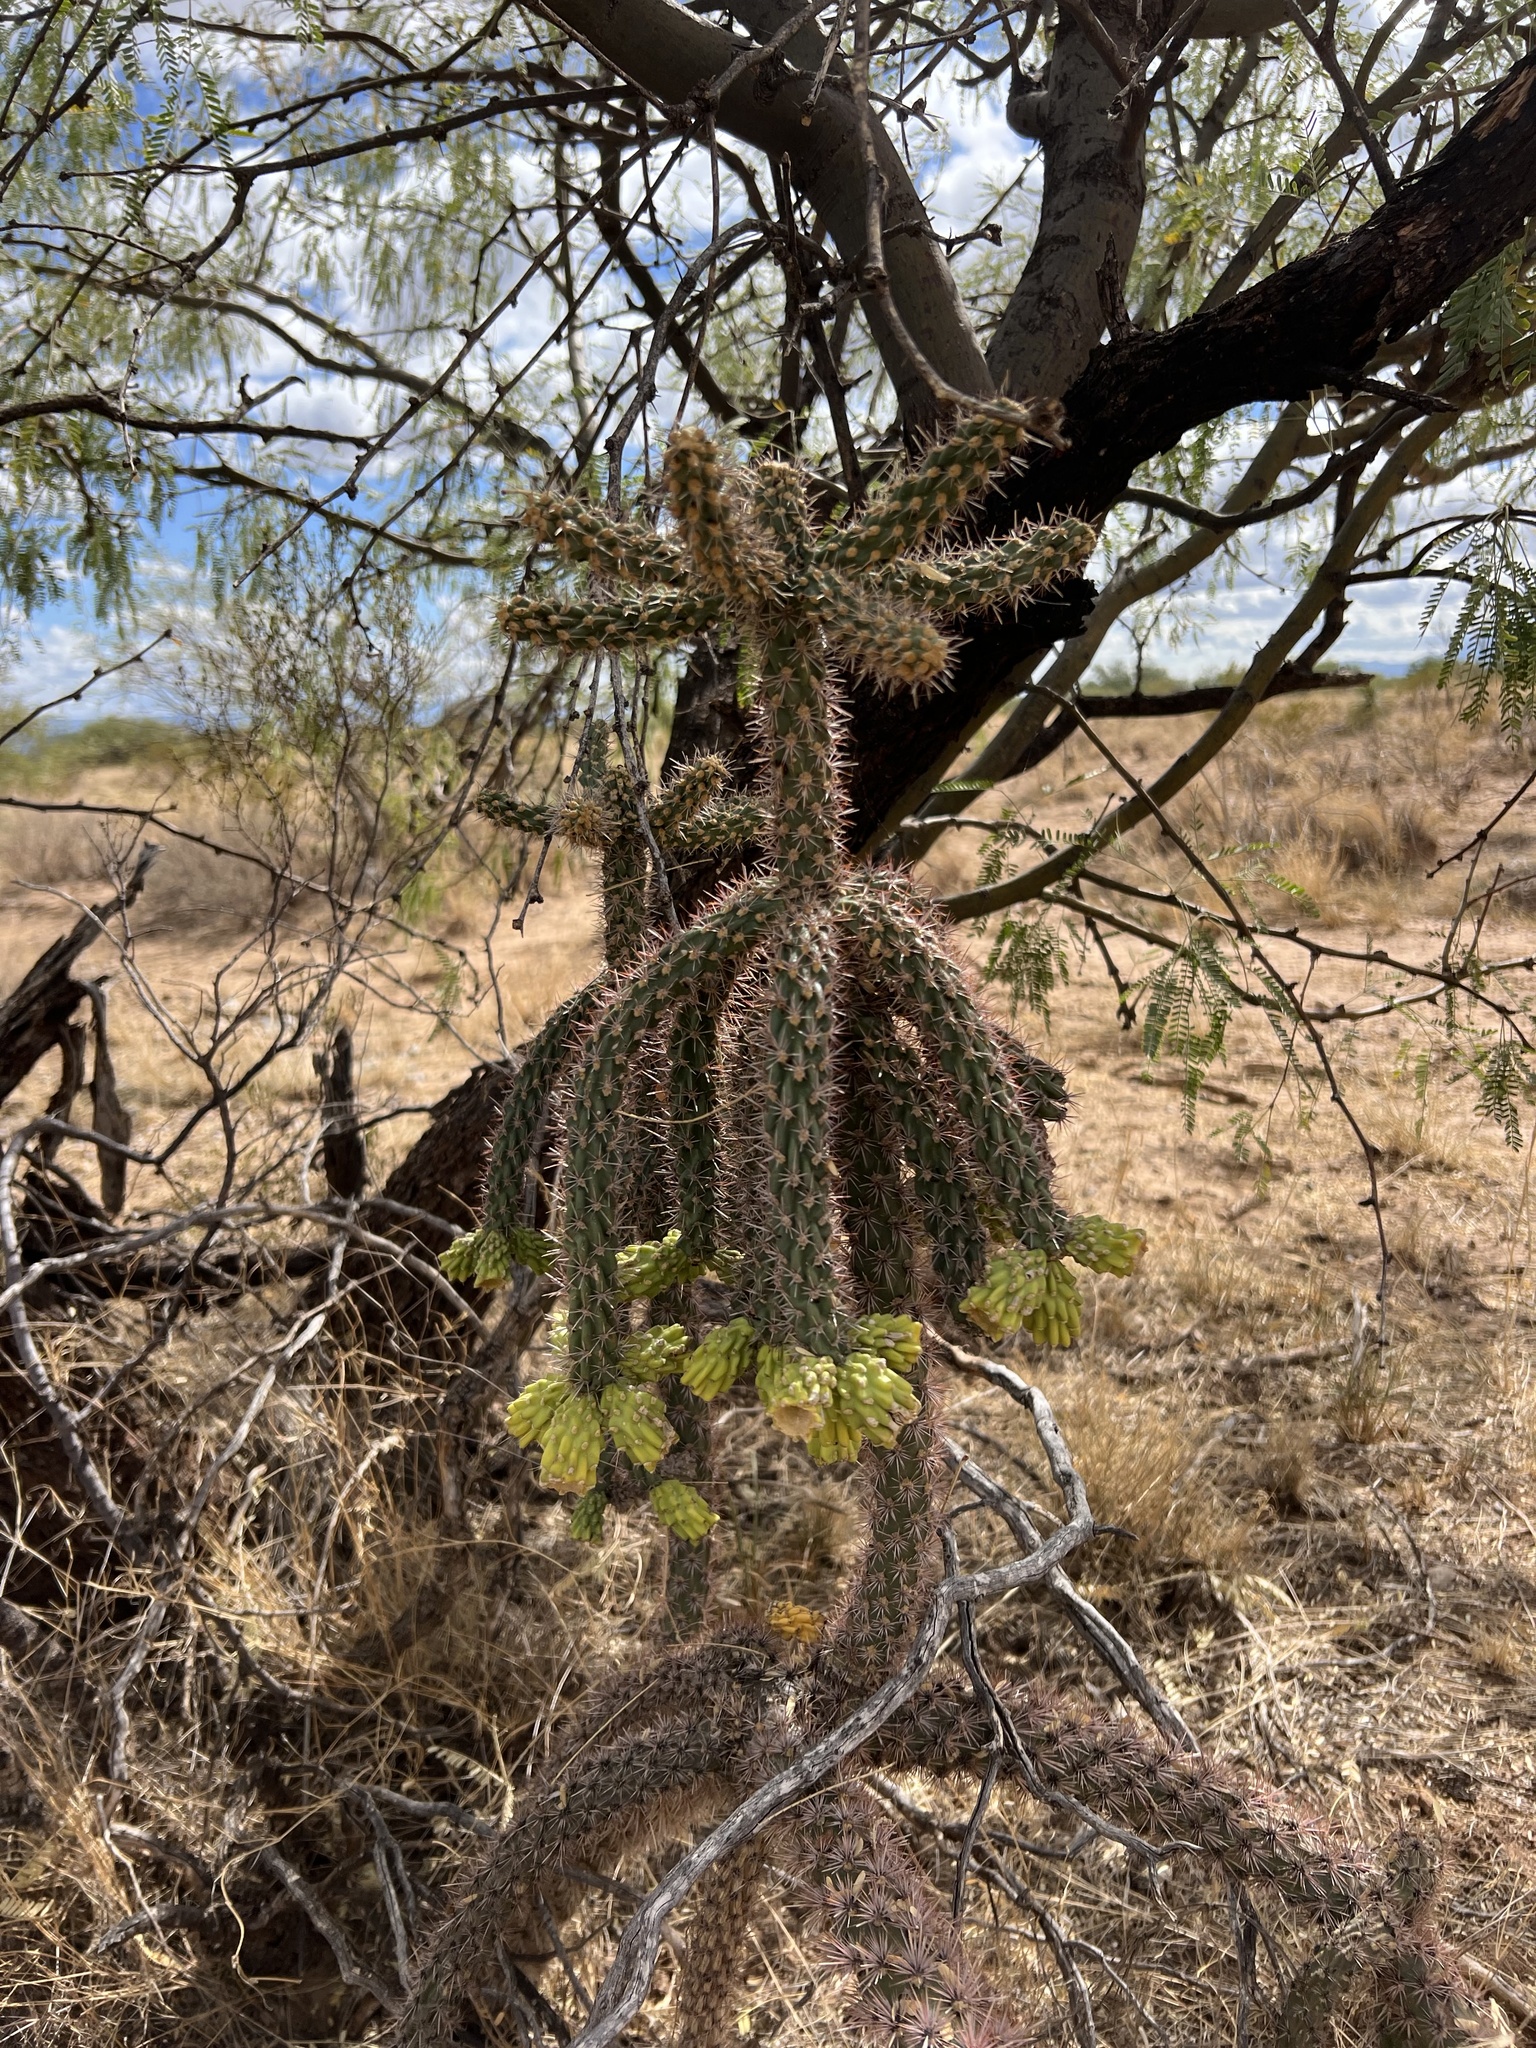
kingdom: Plantae
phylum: Tracheophyta
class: Magnoliopsida
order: Caryophyllales
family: Cactaceae
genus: Cylindropuntia
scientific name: Cylindropuntia imbricata
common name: Candelabrum cactus
